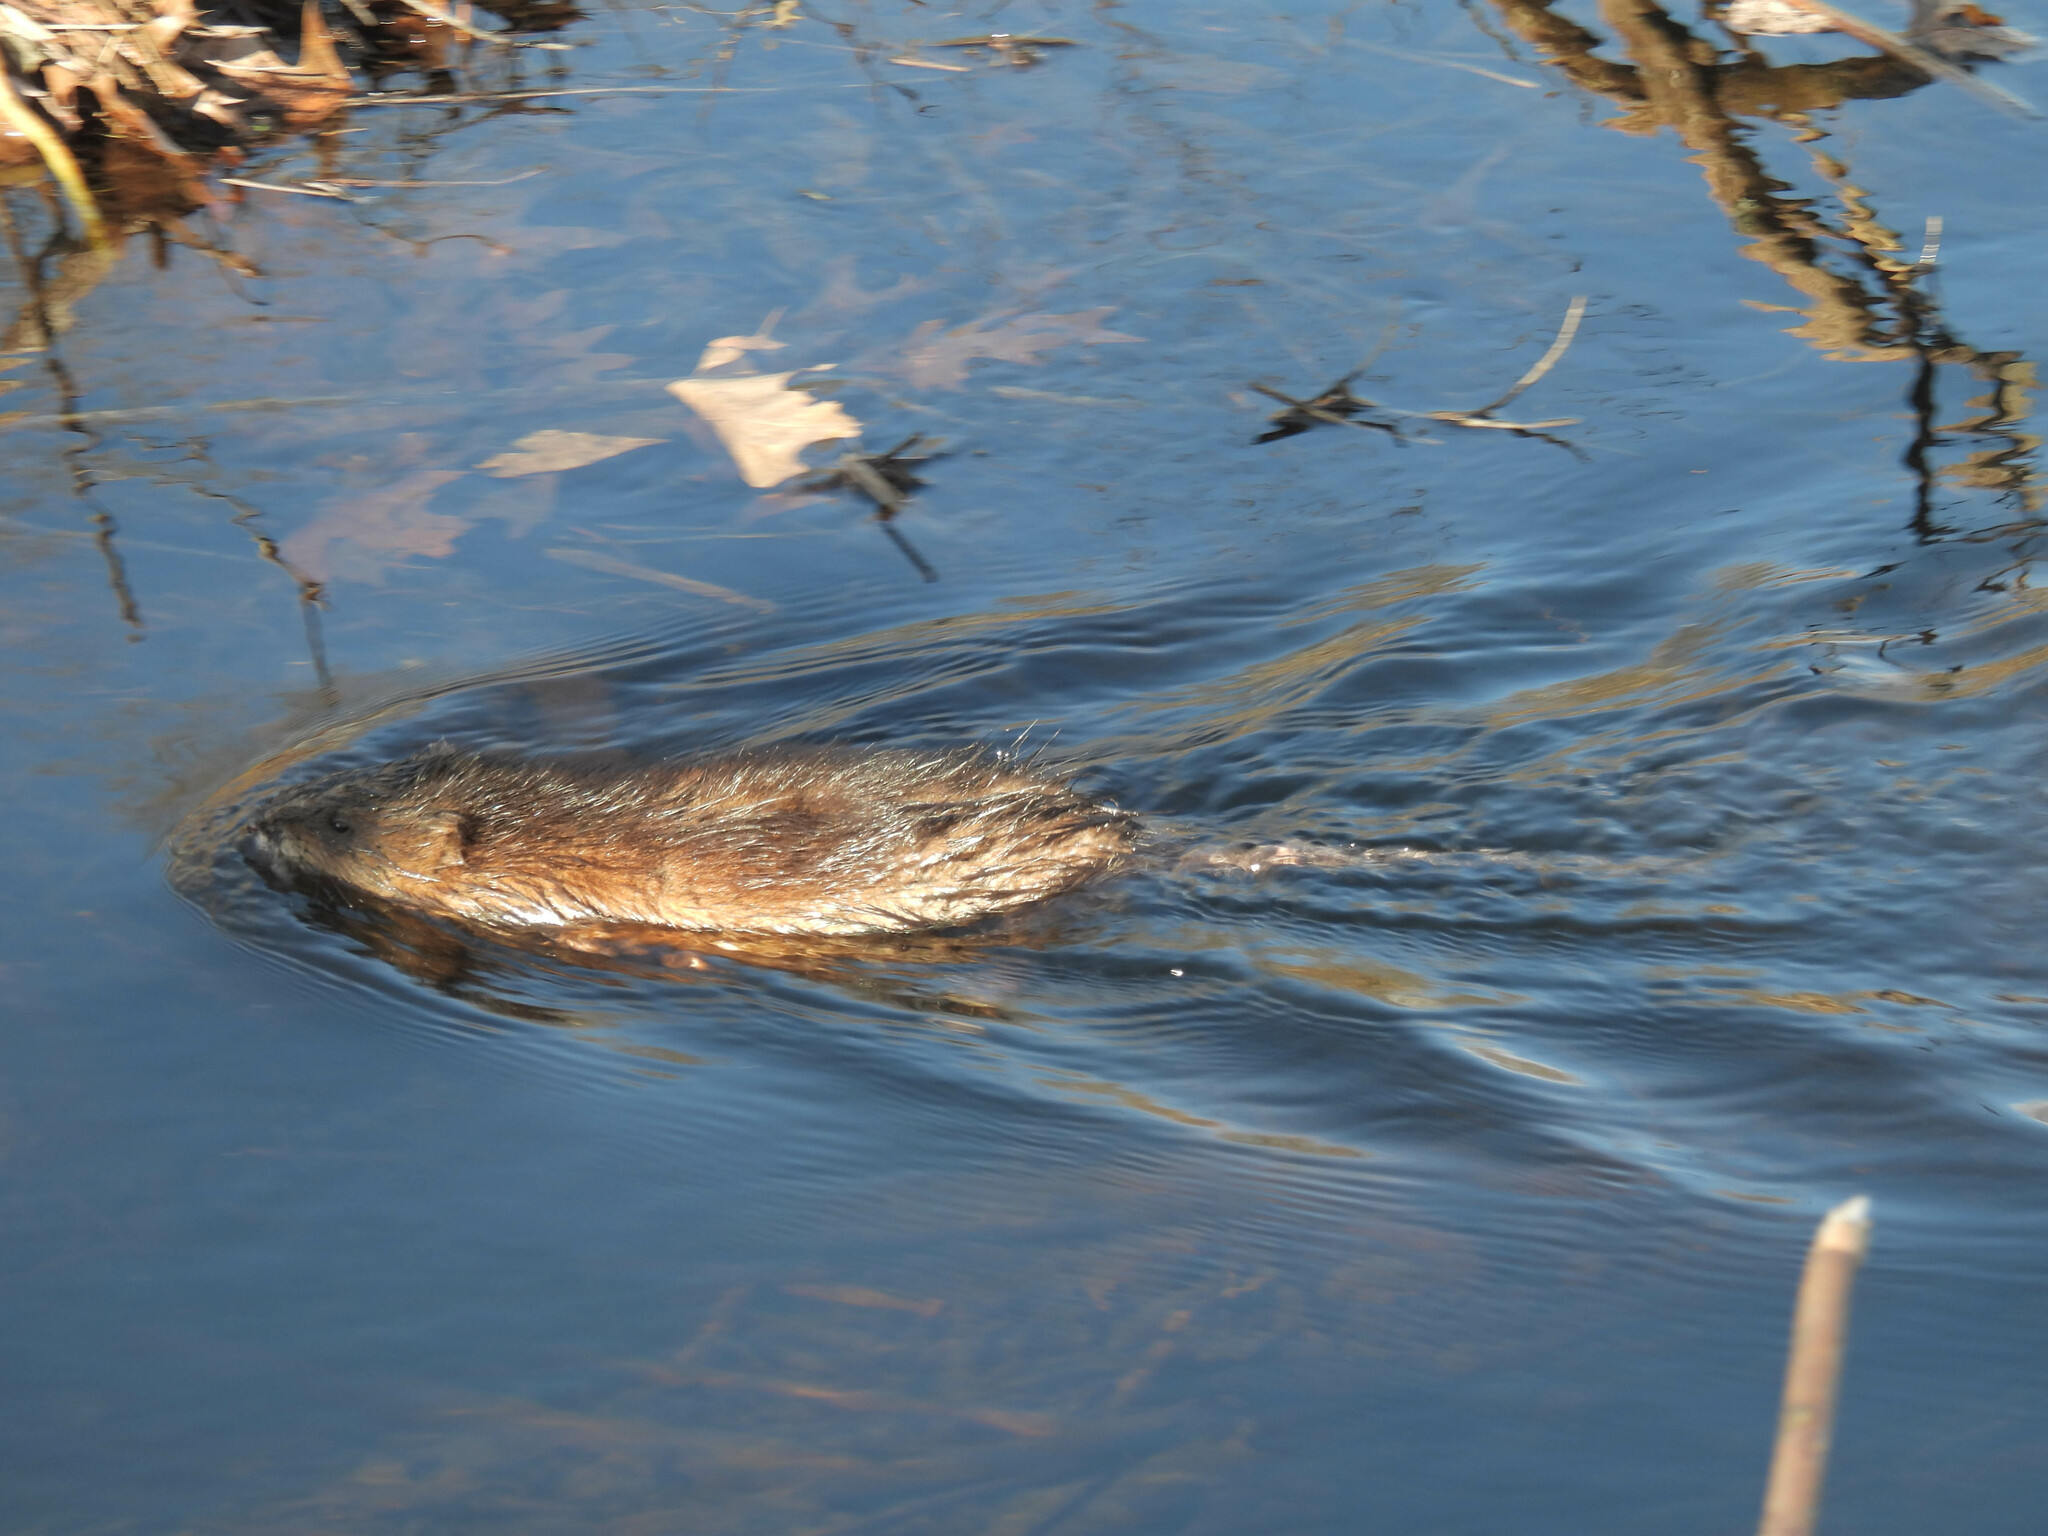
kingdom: Animalia
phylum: Chordata
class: Mammalia
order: Rodentia
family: Cricetidae
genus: Ondatra
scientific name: Ondatra zibethicus
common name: Muskrat
